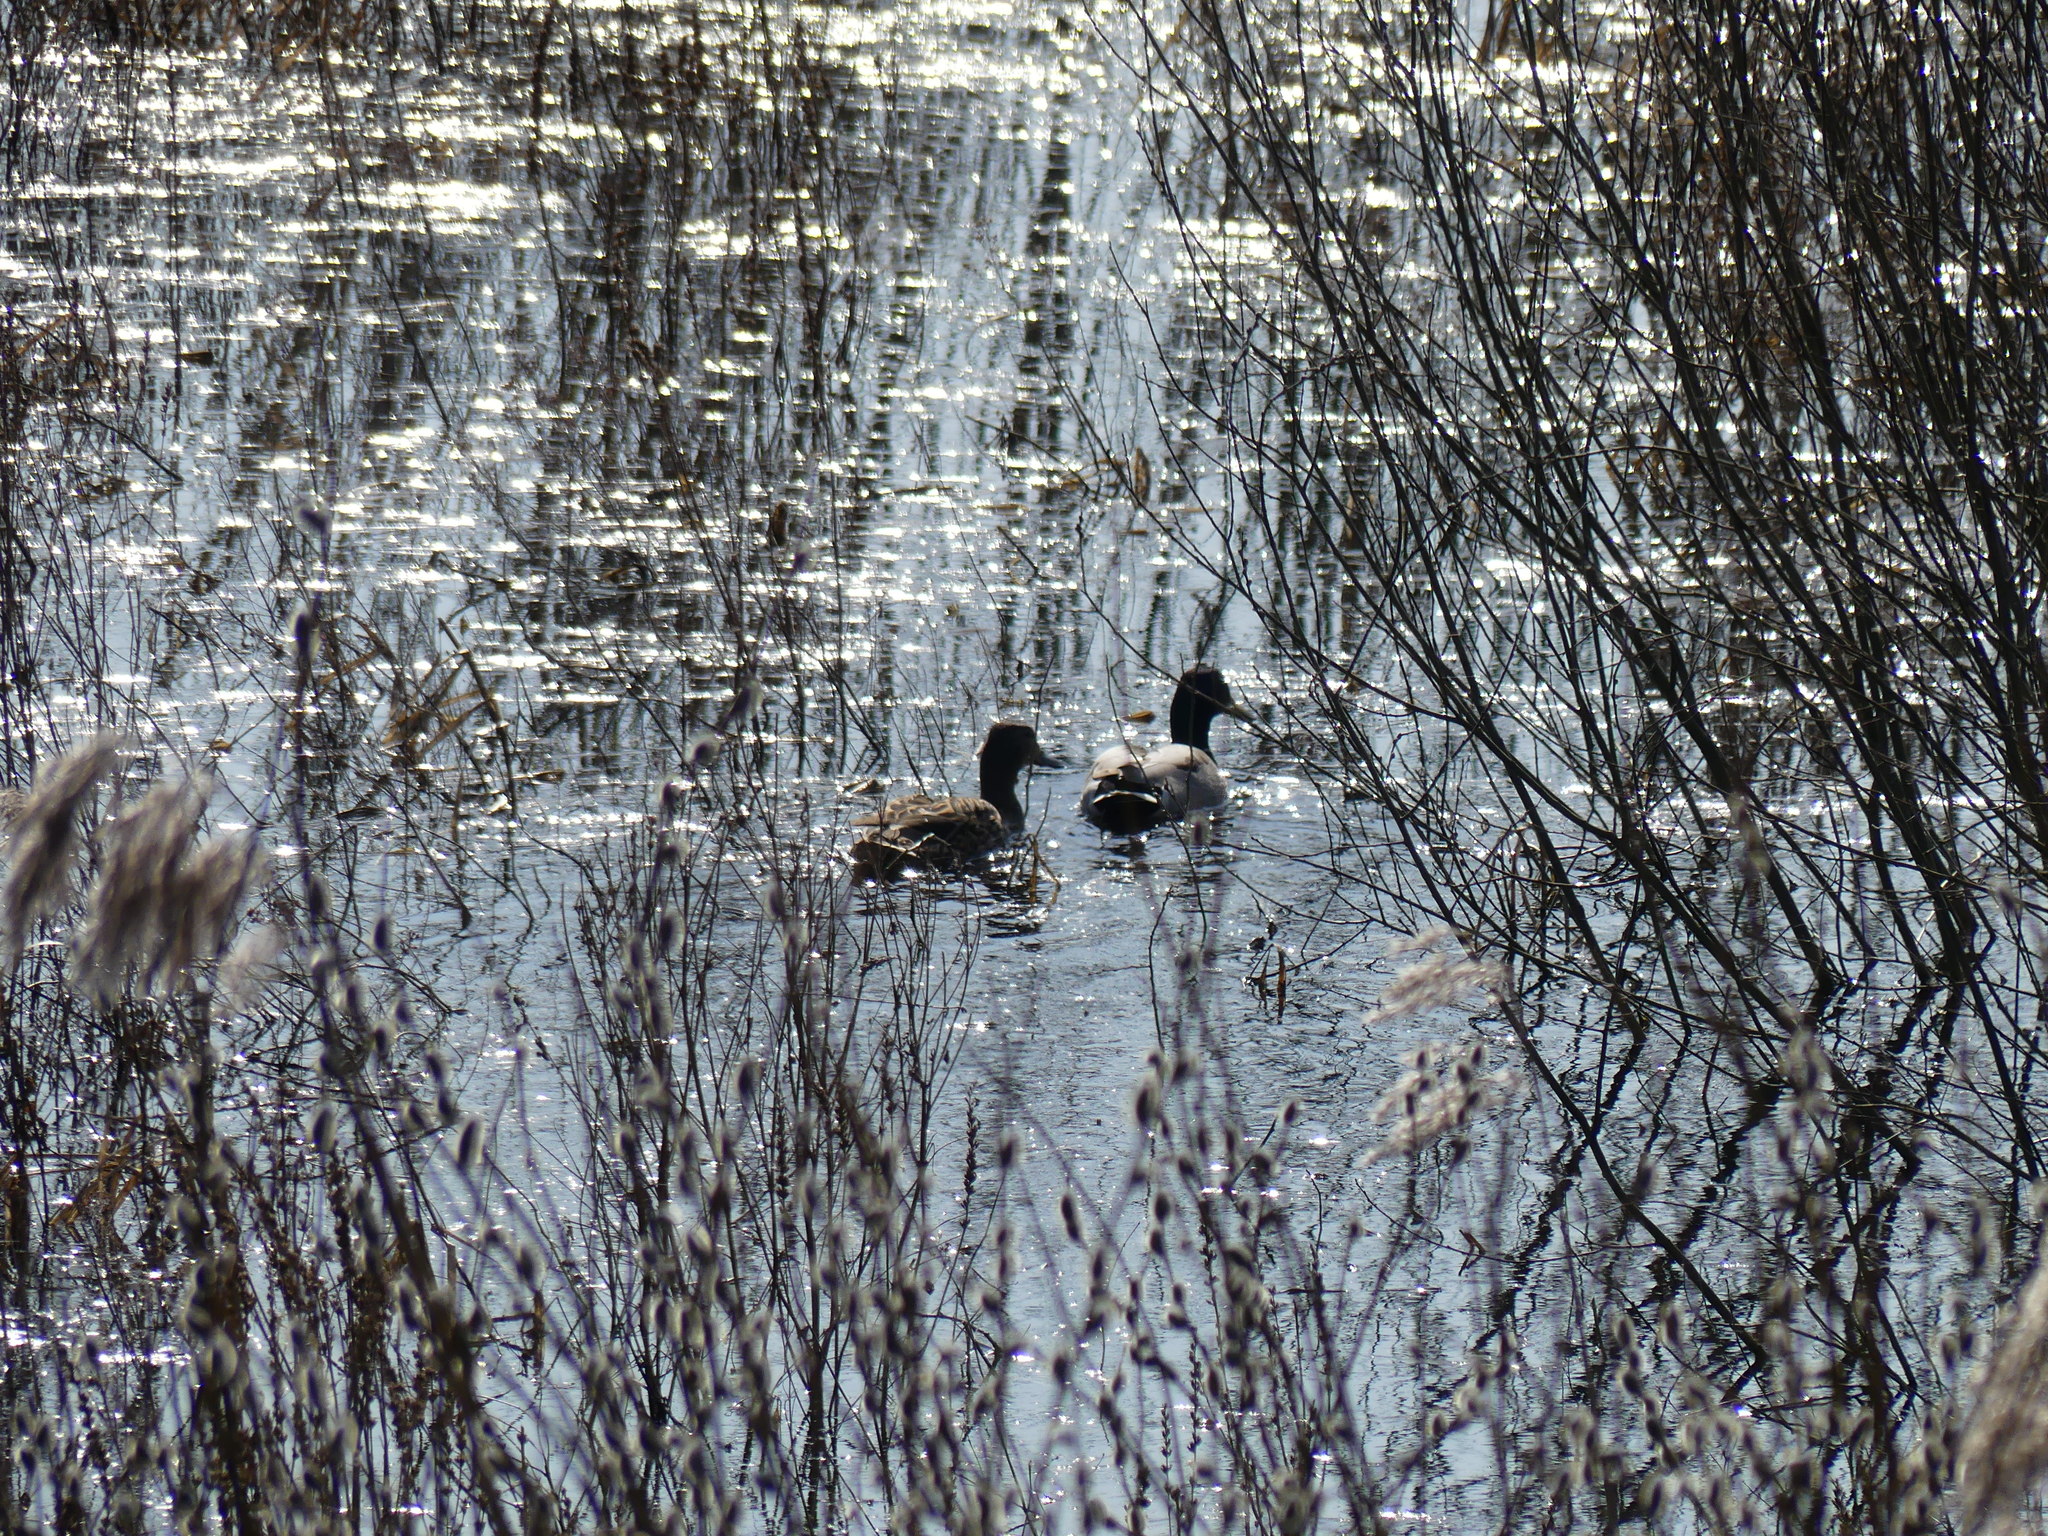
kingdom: Animalia
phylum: Chordata
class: Aves
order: Anseriformes
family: Anatidae
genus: Anas
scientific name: Anas platyrhynchos
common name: Mallard
